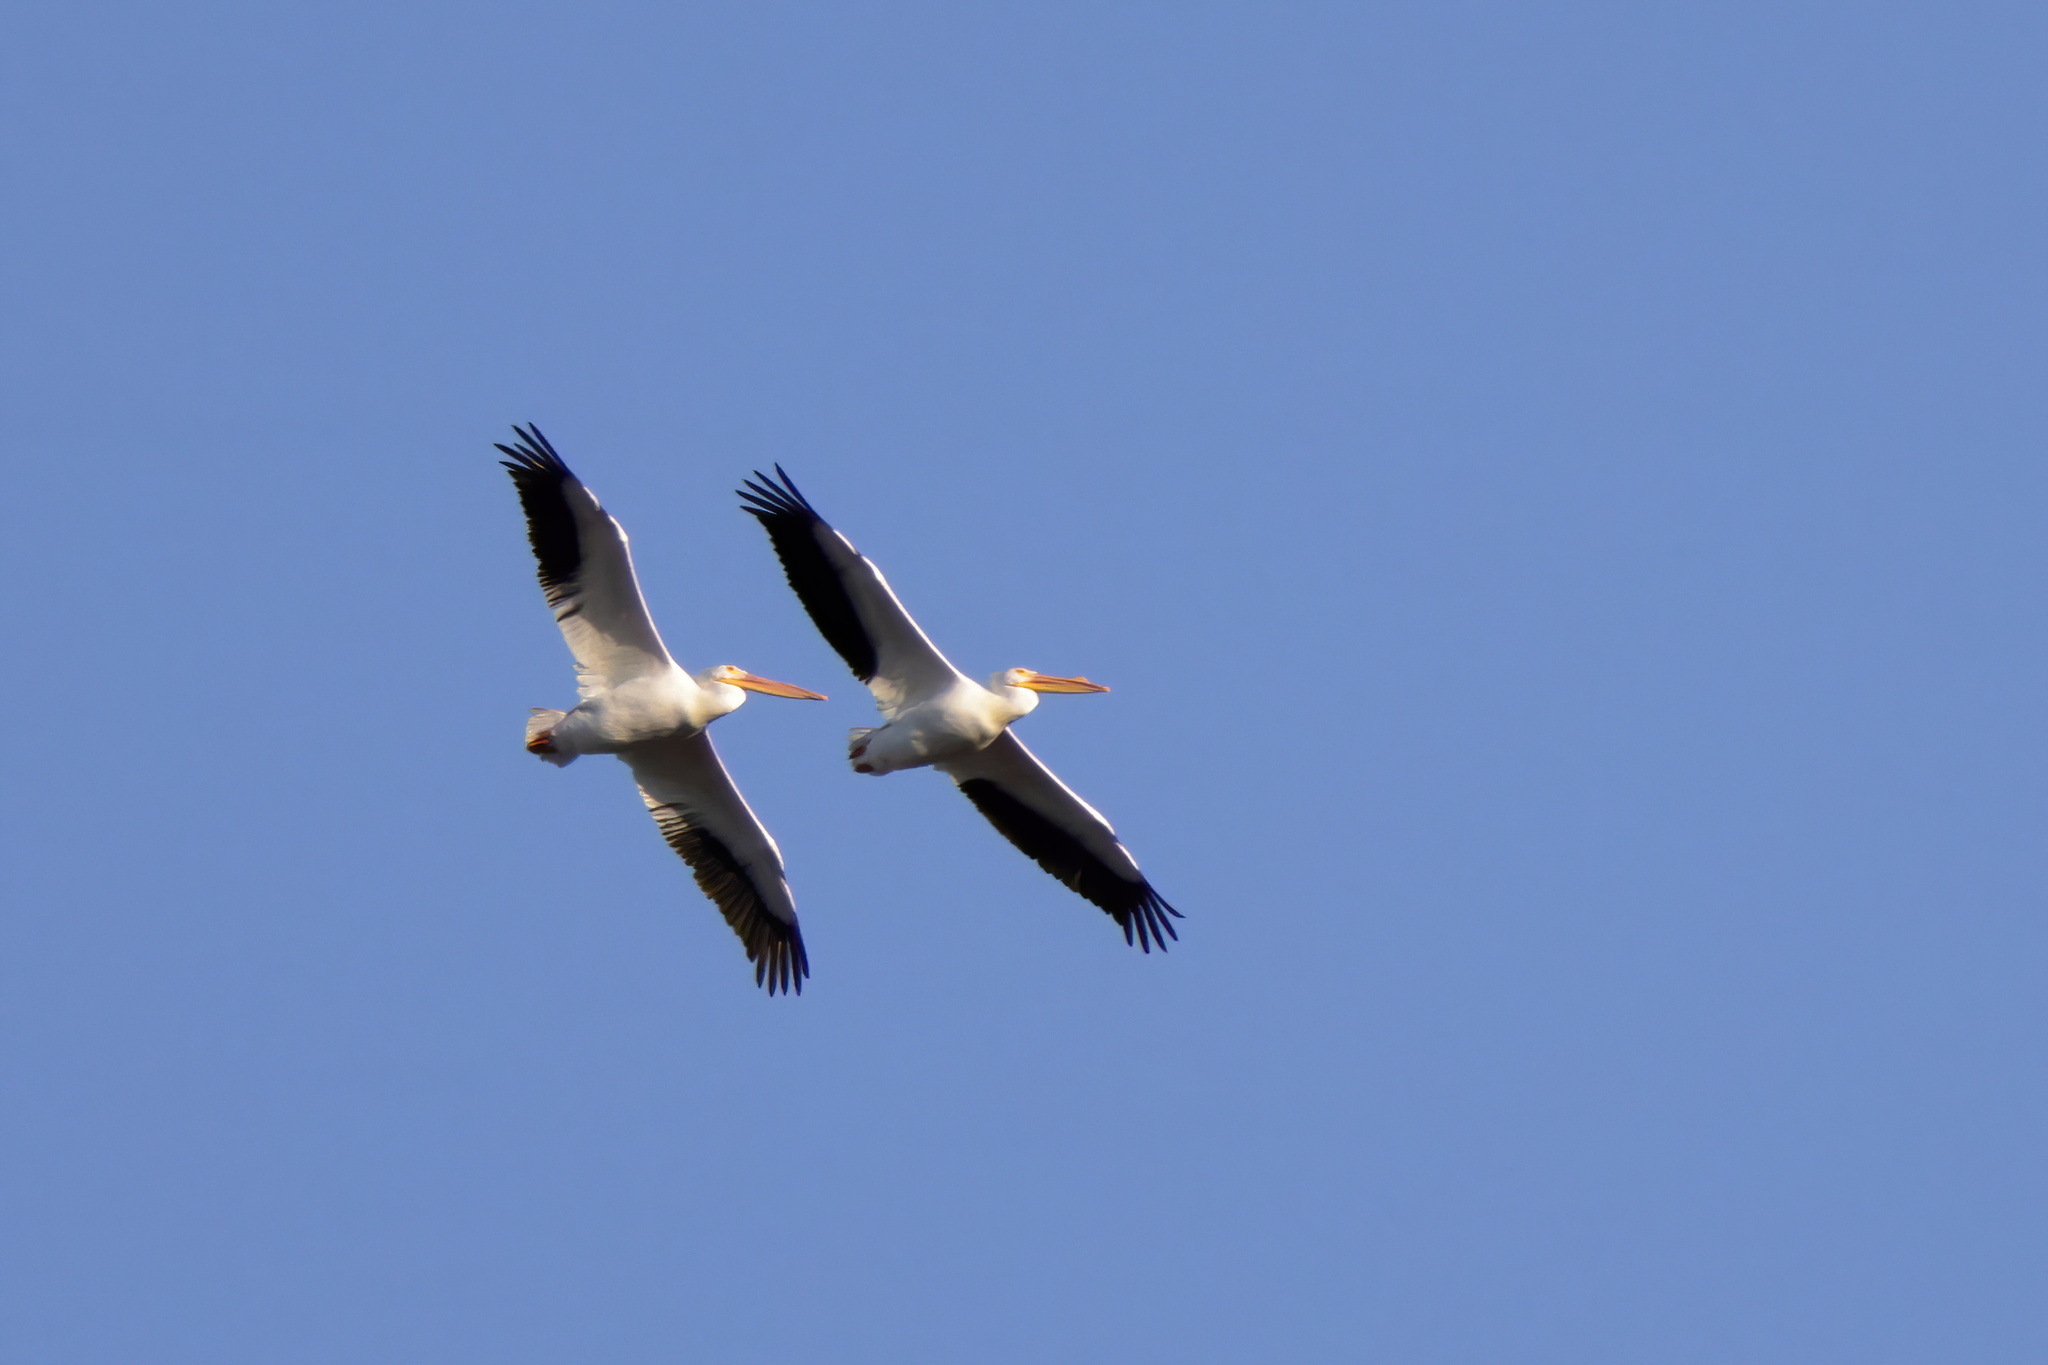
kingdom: Animalia
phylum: Chordata
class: Aves
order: Pelecaniformes
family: Pelecanidae
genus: Pelecanus
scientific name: Pelecanus erythrorhynchos
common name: American white pelican
